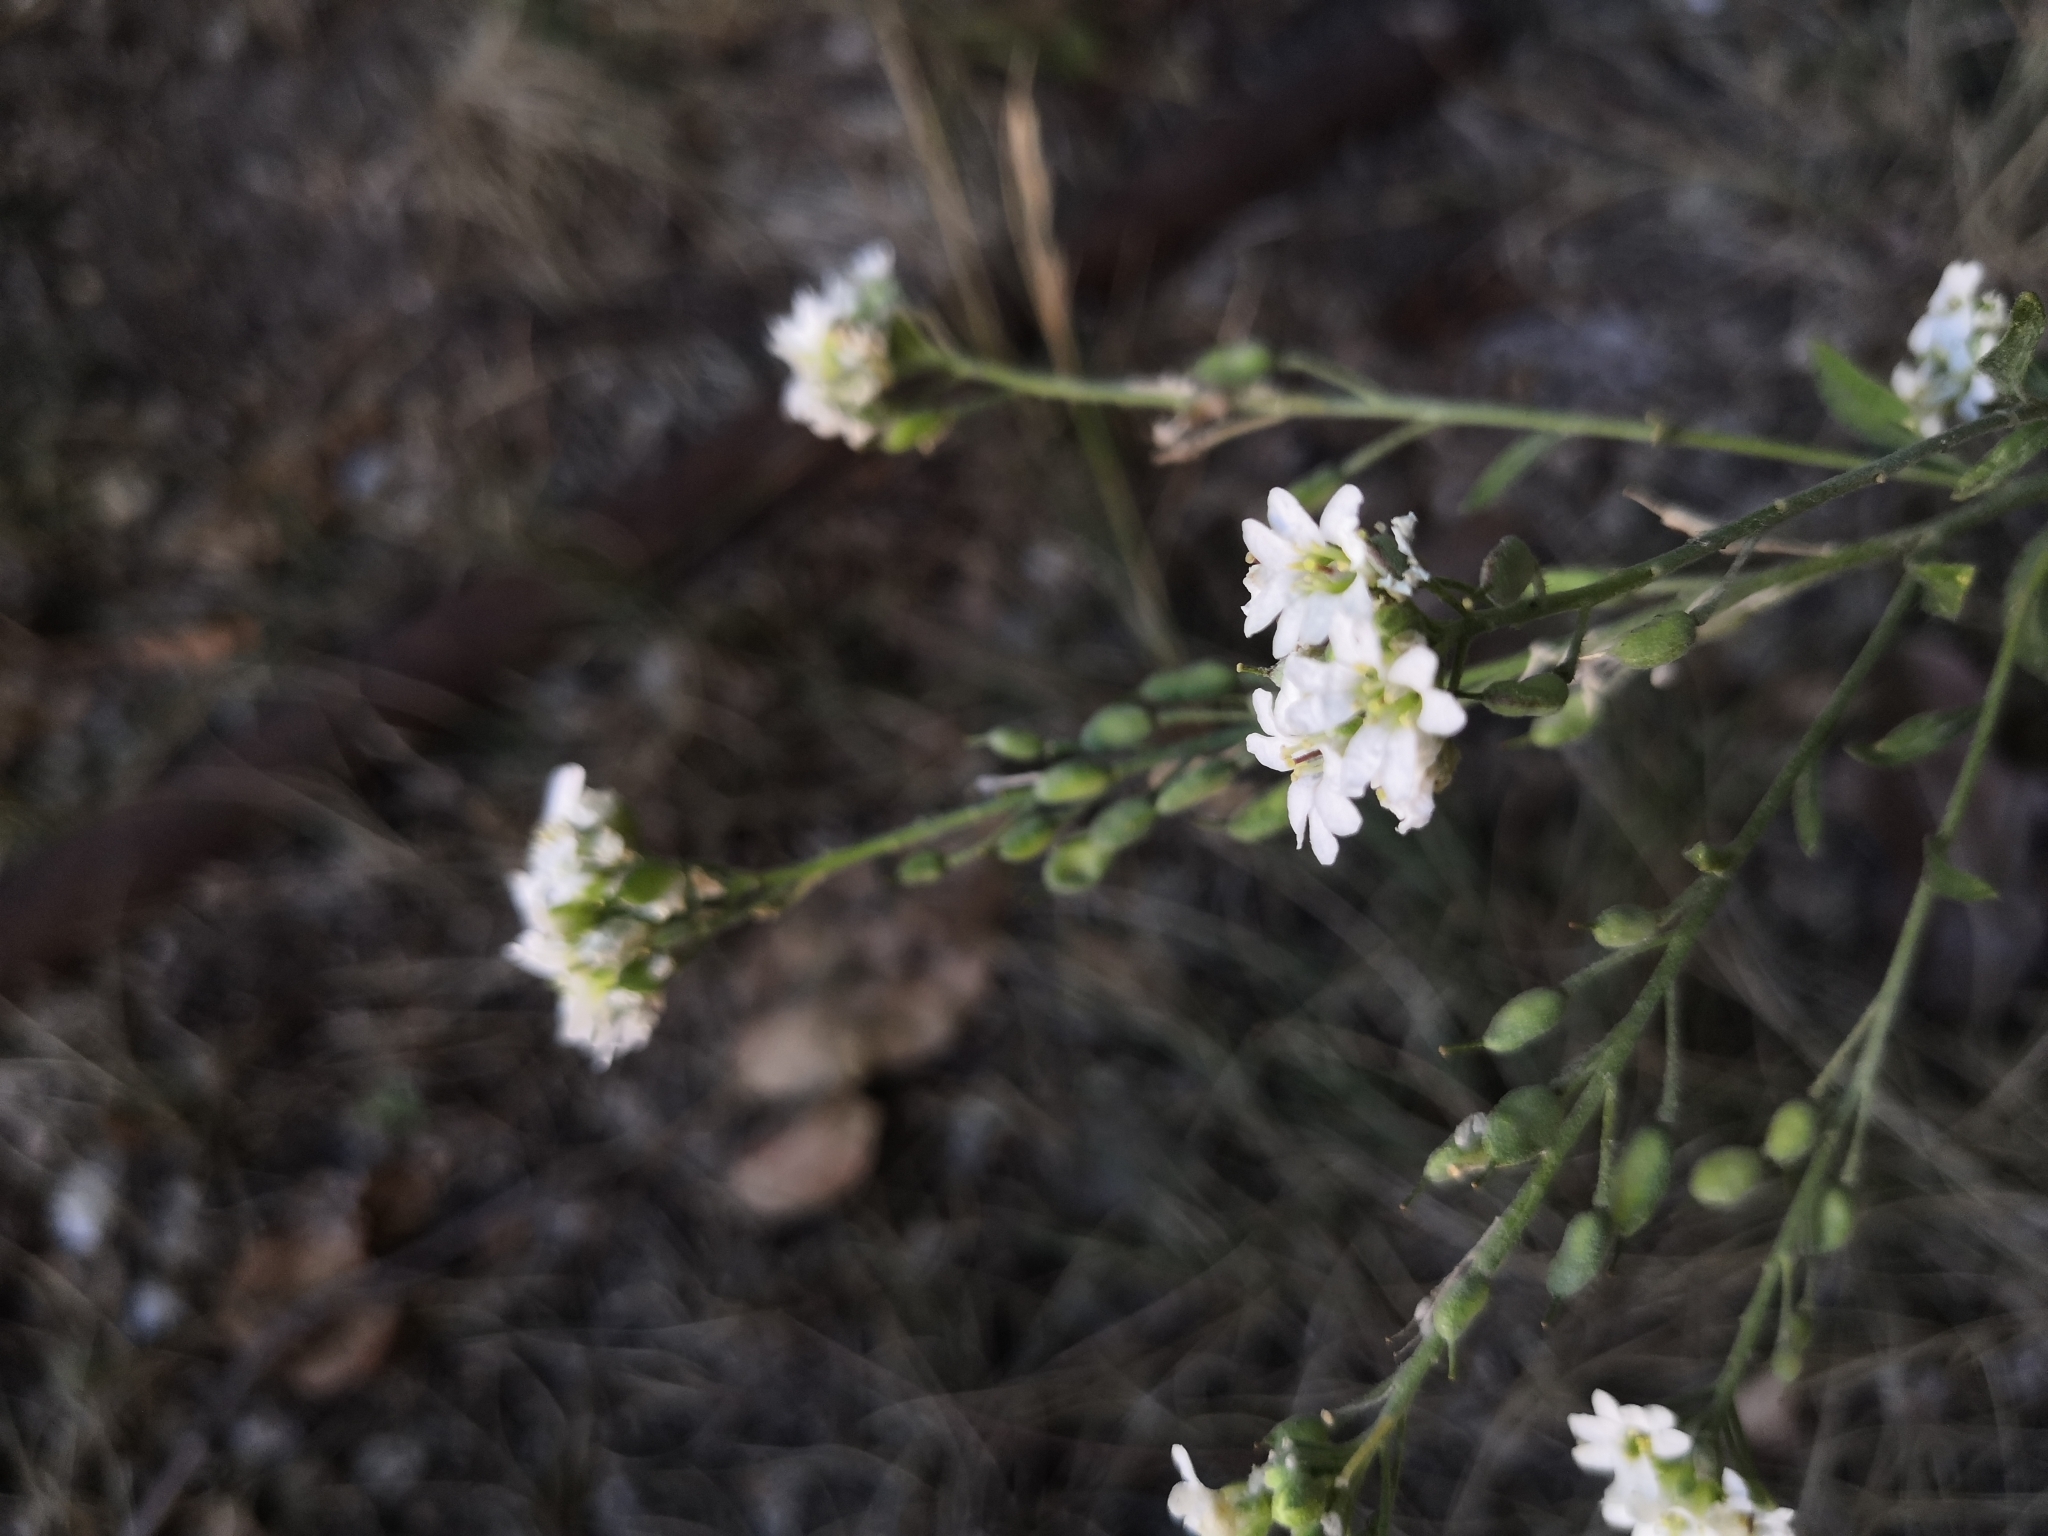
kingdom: Plantae
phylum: Tracheophyta
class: Magnoliopsida
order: Brassicales
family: Brassicaceae
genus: Berteroa
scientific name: Berteroa incana
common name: Hoary alison
